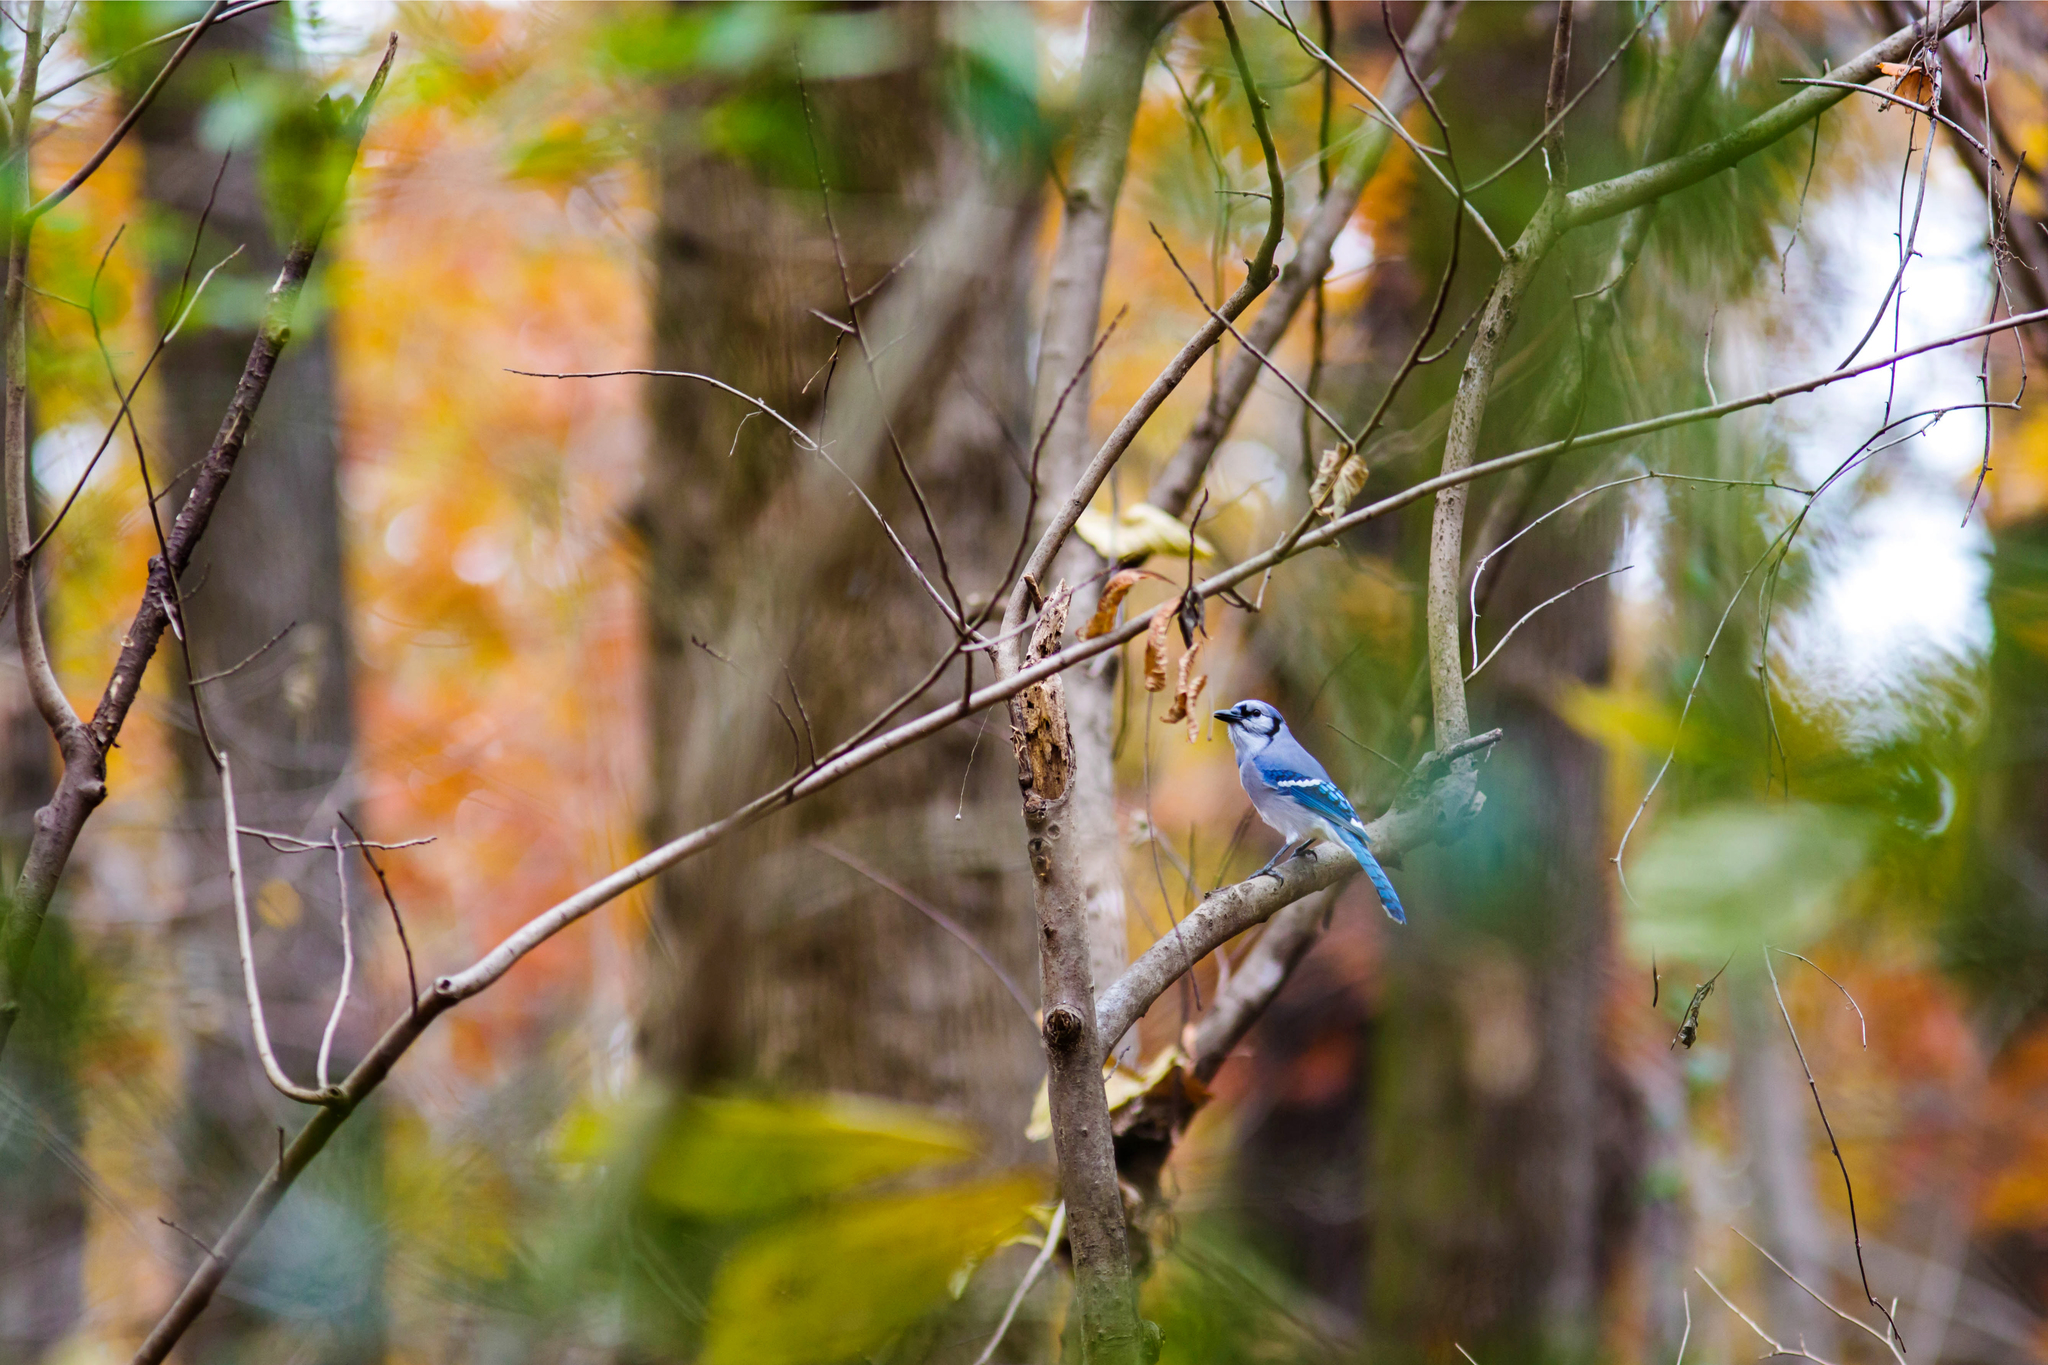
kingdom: Animalia
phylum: Chordata
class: Aves
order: Passeriformes
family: Corvidae
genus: Cyanocitta
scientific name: Cyanocitta cristata
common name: Blue jay
